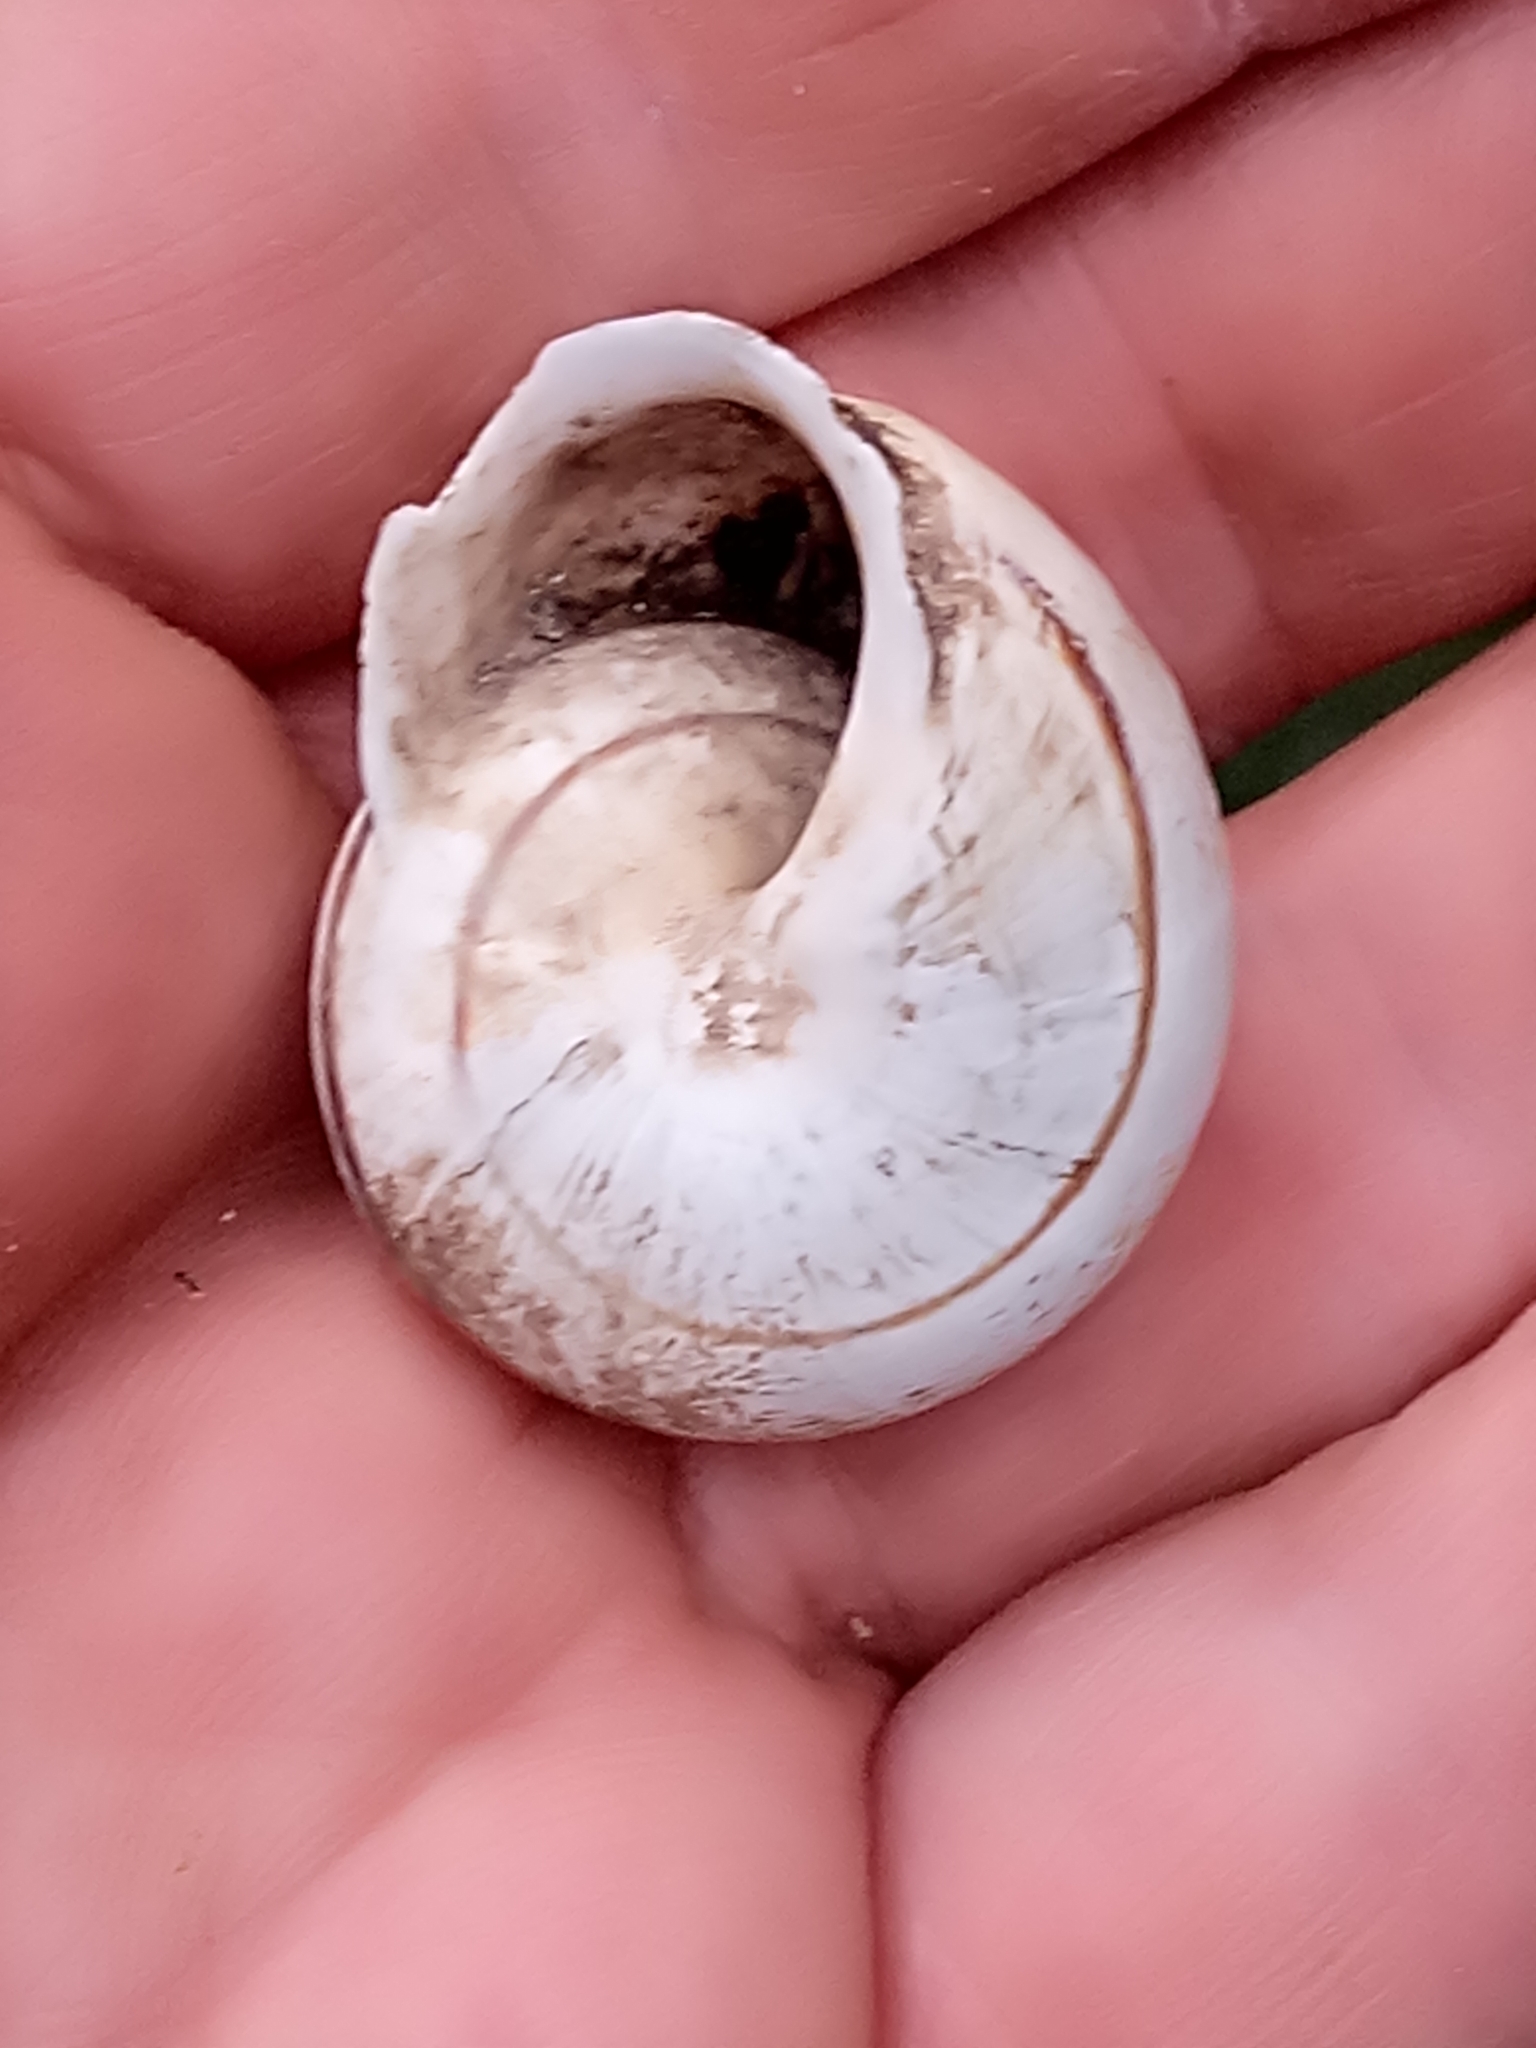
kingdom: Animalia
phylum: Mollusca
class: Gastropoda
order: Stylommatophora
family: Helicidae
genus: Eobania
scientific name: Eobania constantina
